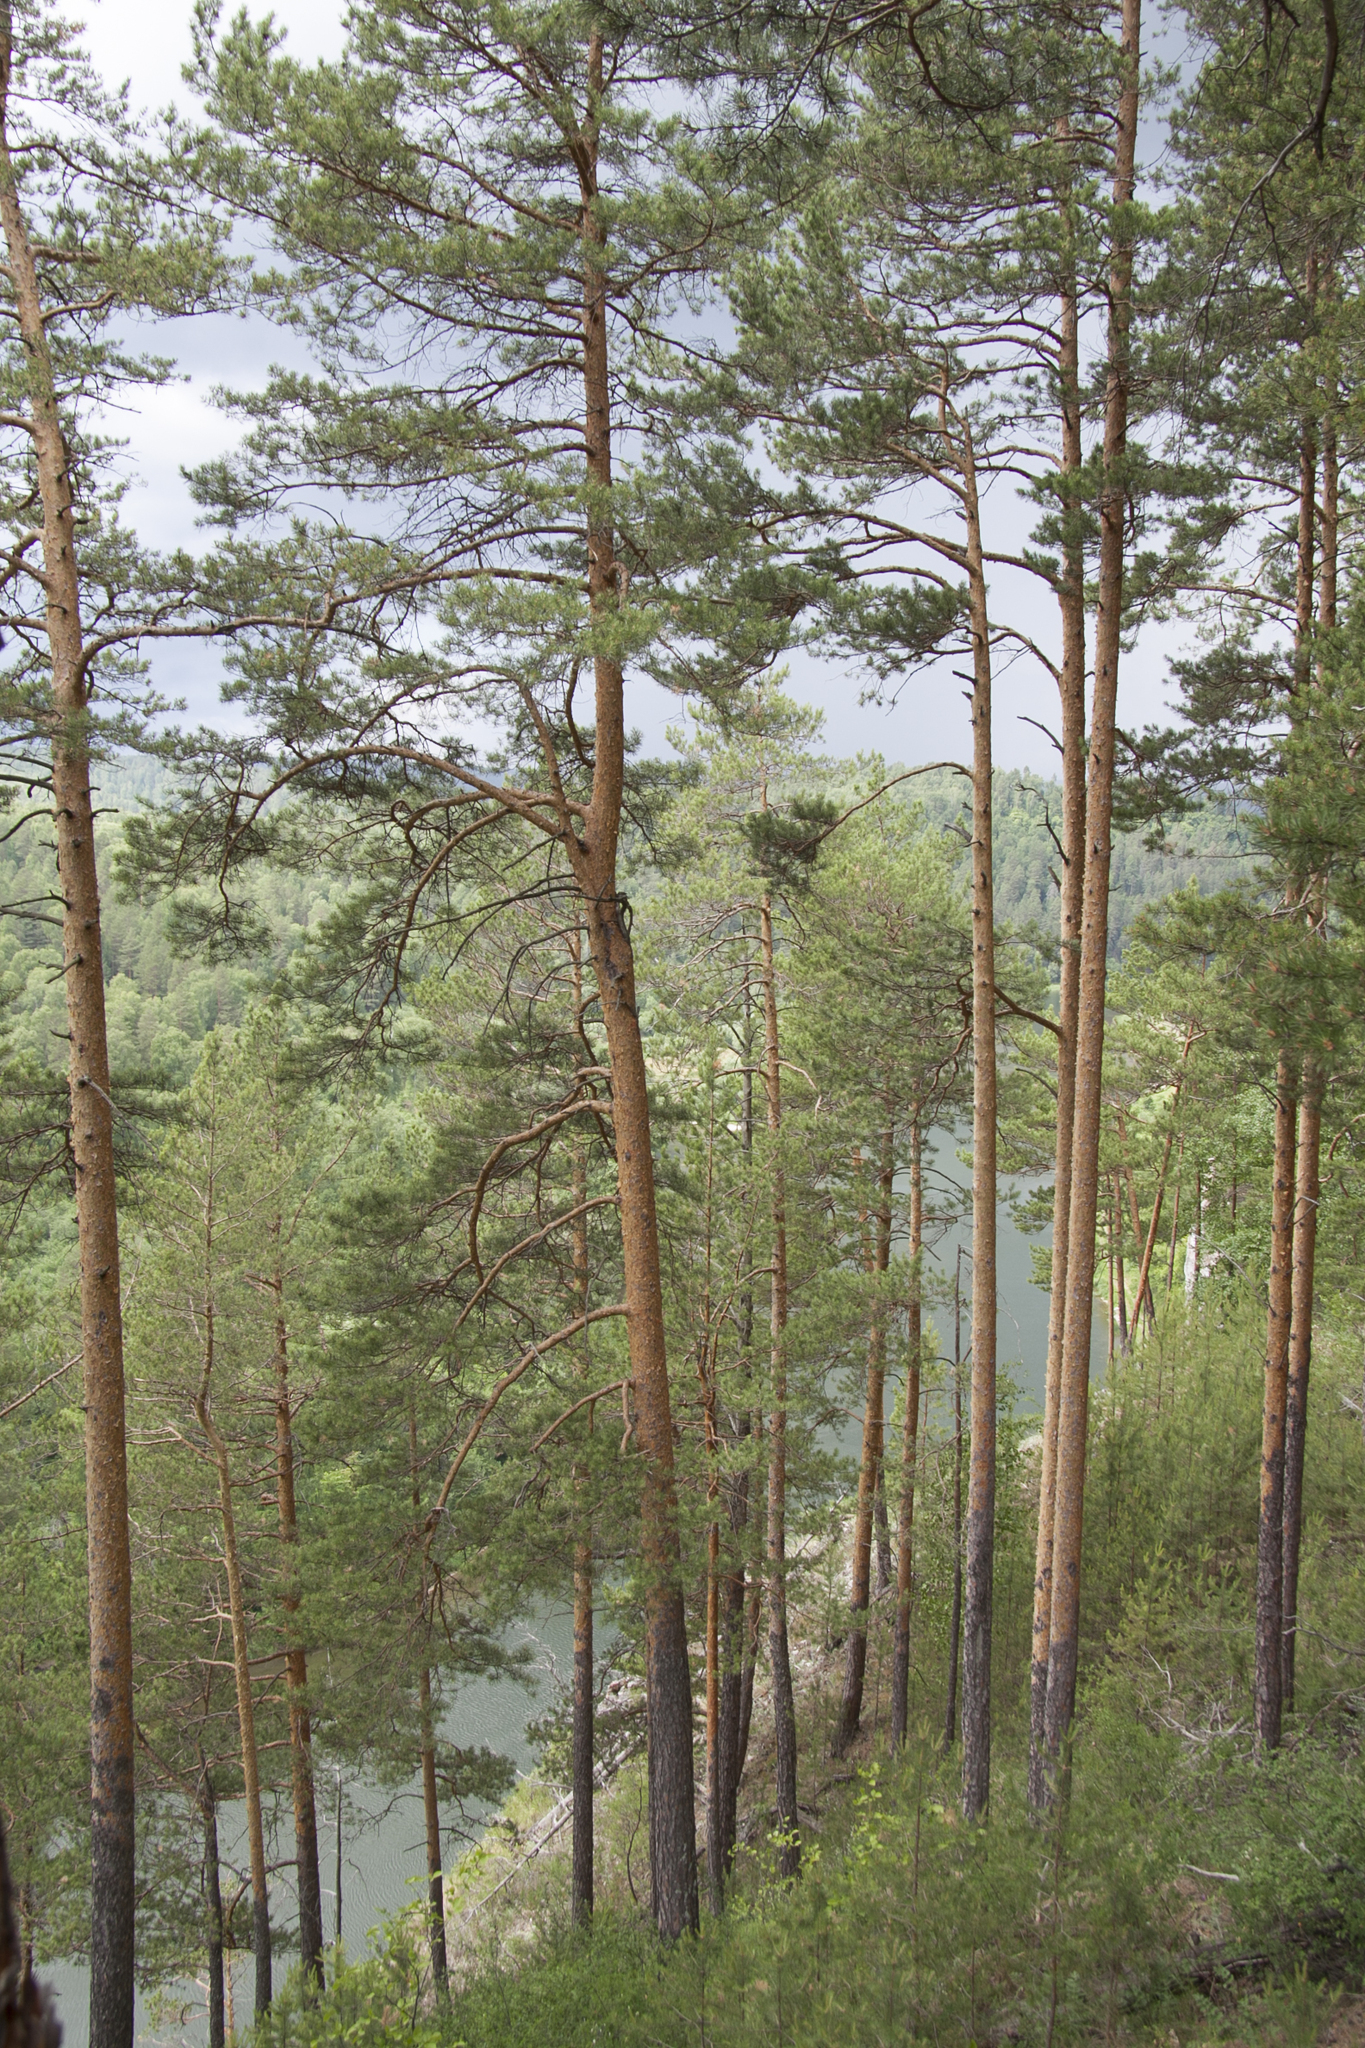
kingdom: Plantae
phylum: Tracheophyta
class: Pinopsida
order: Pinales
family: Pinaceae
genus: Pinus
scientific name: Pinus sylvestris
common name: Scots pine
